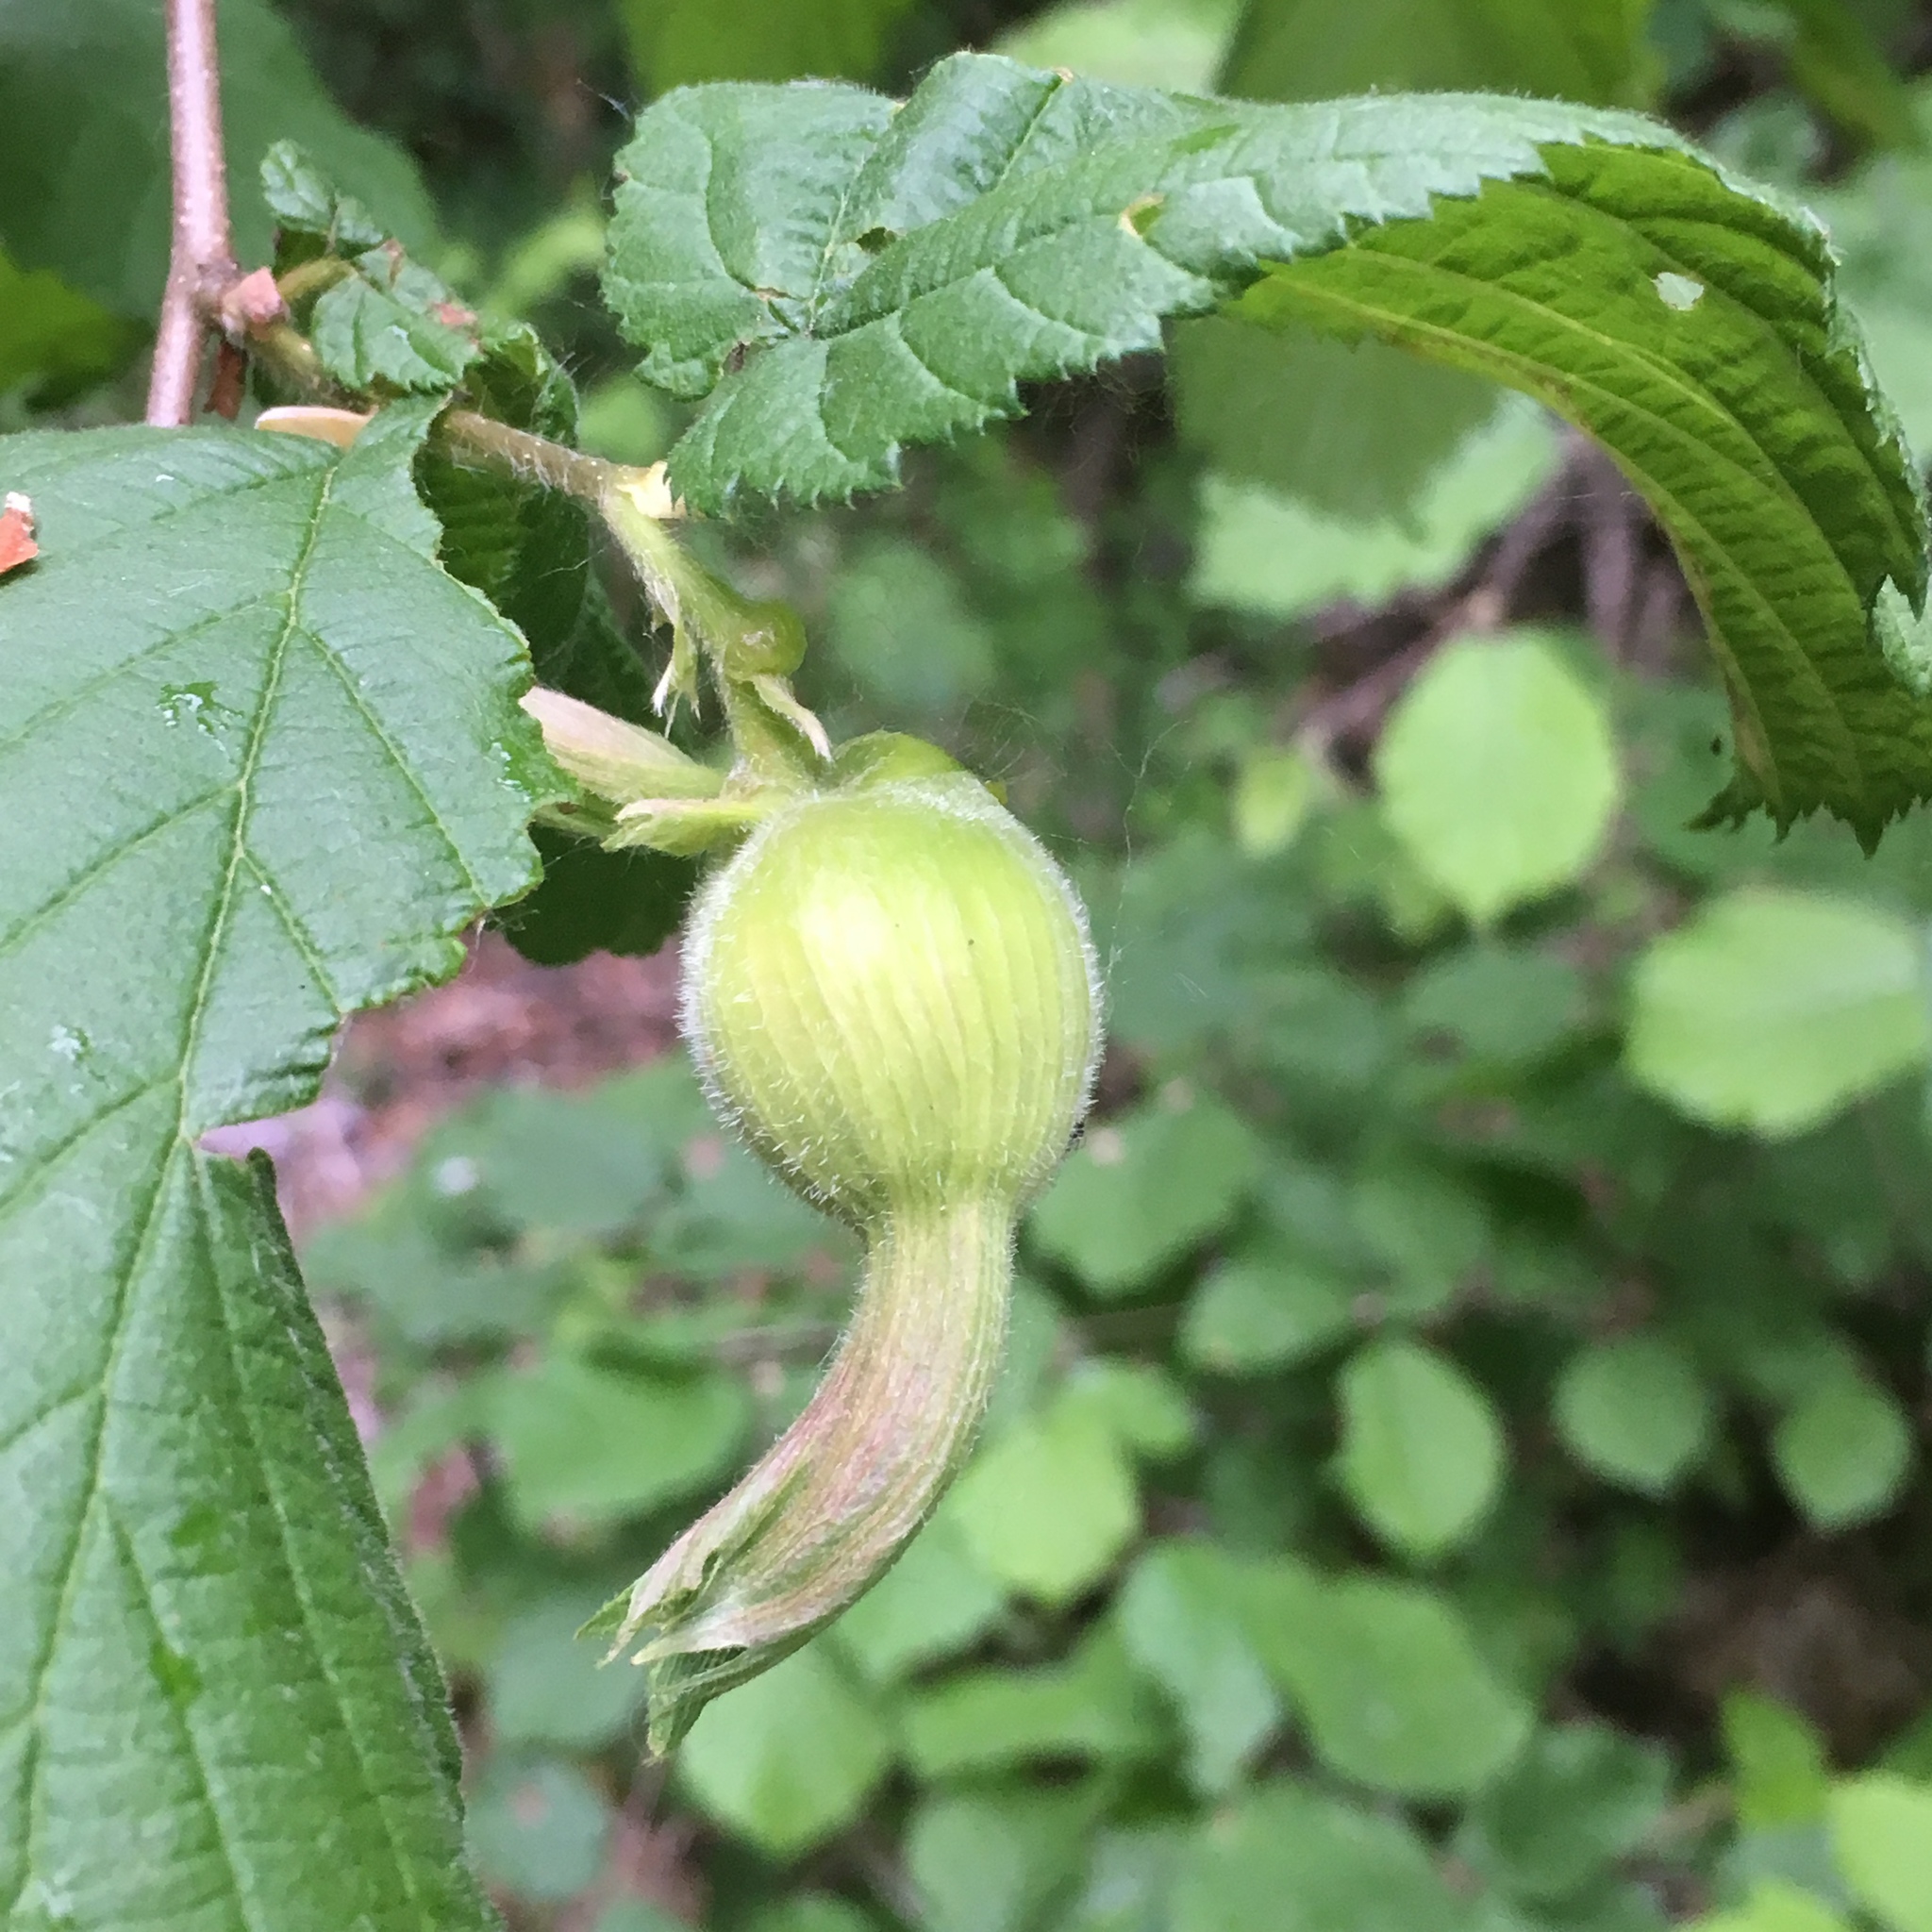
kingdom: Plantae
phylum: Tracheophyta
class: Magnoliopsida
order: Fagales
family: Betulaceae
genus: Corylus
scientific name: Corylus cornuta
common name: Beaked hazel
